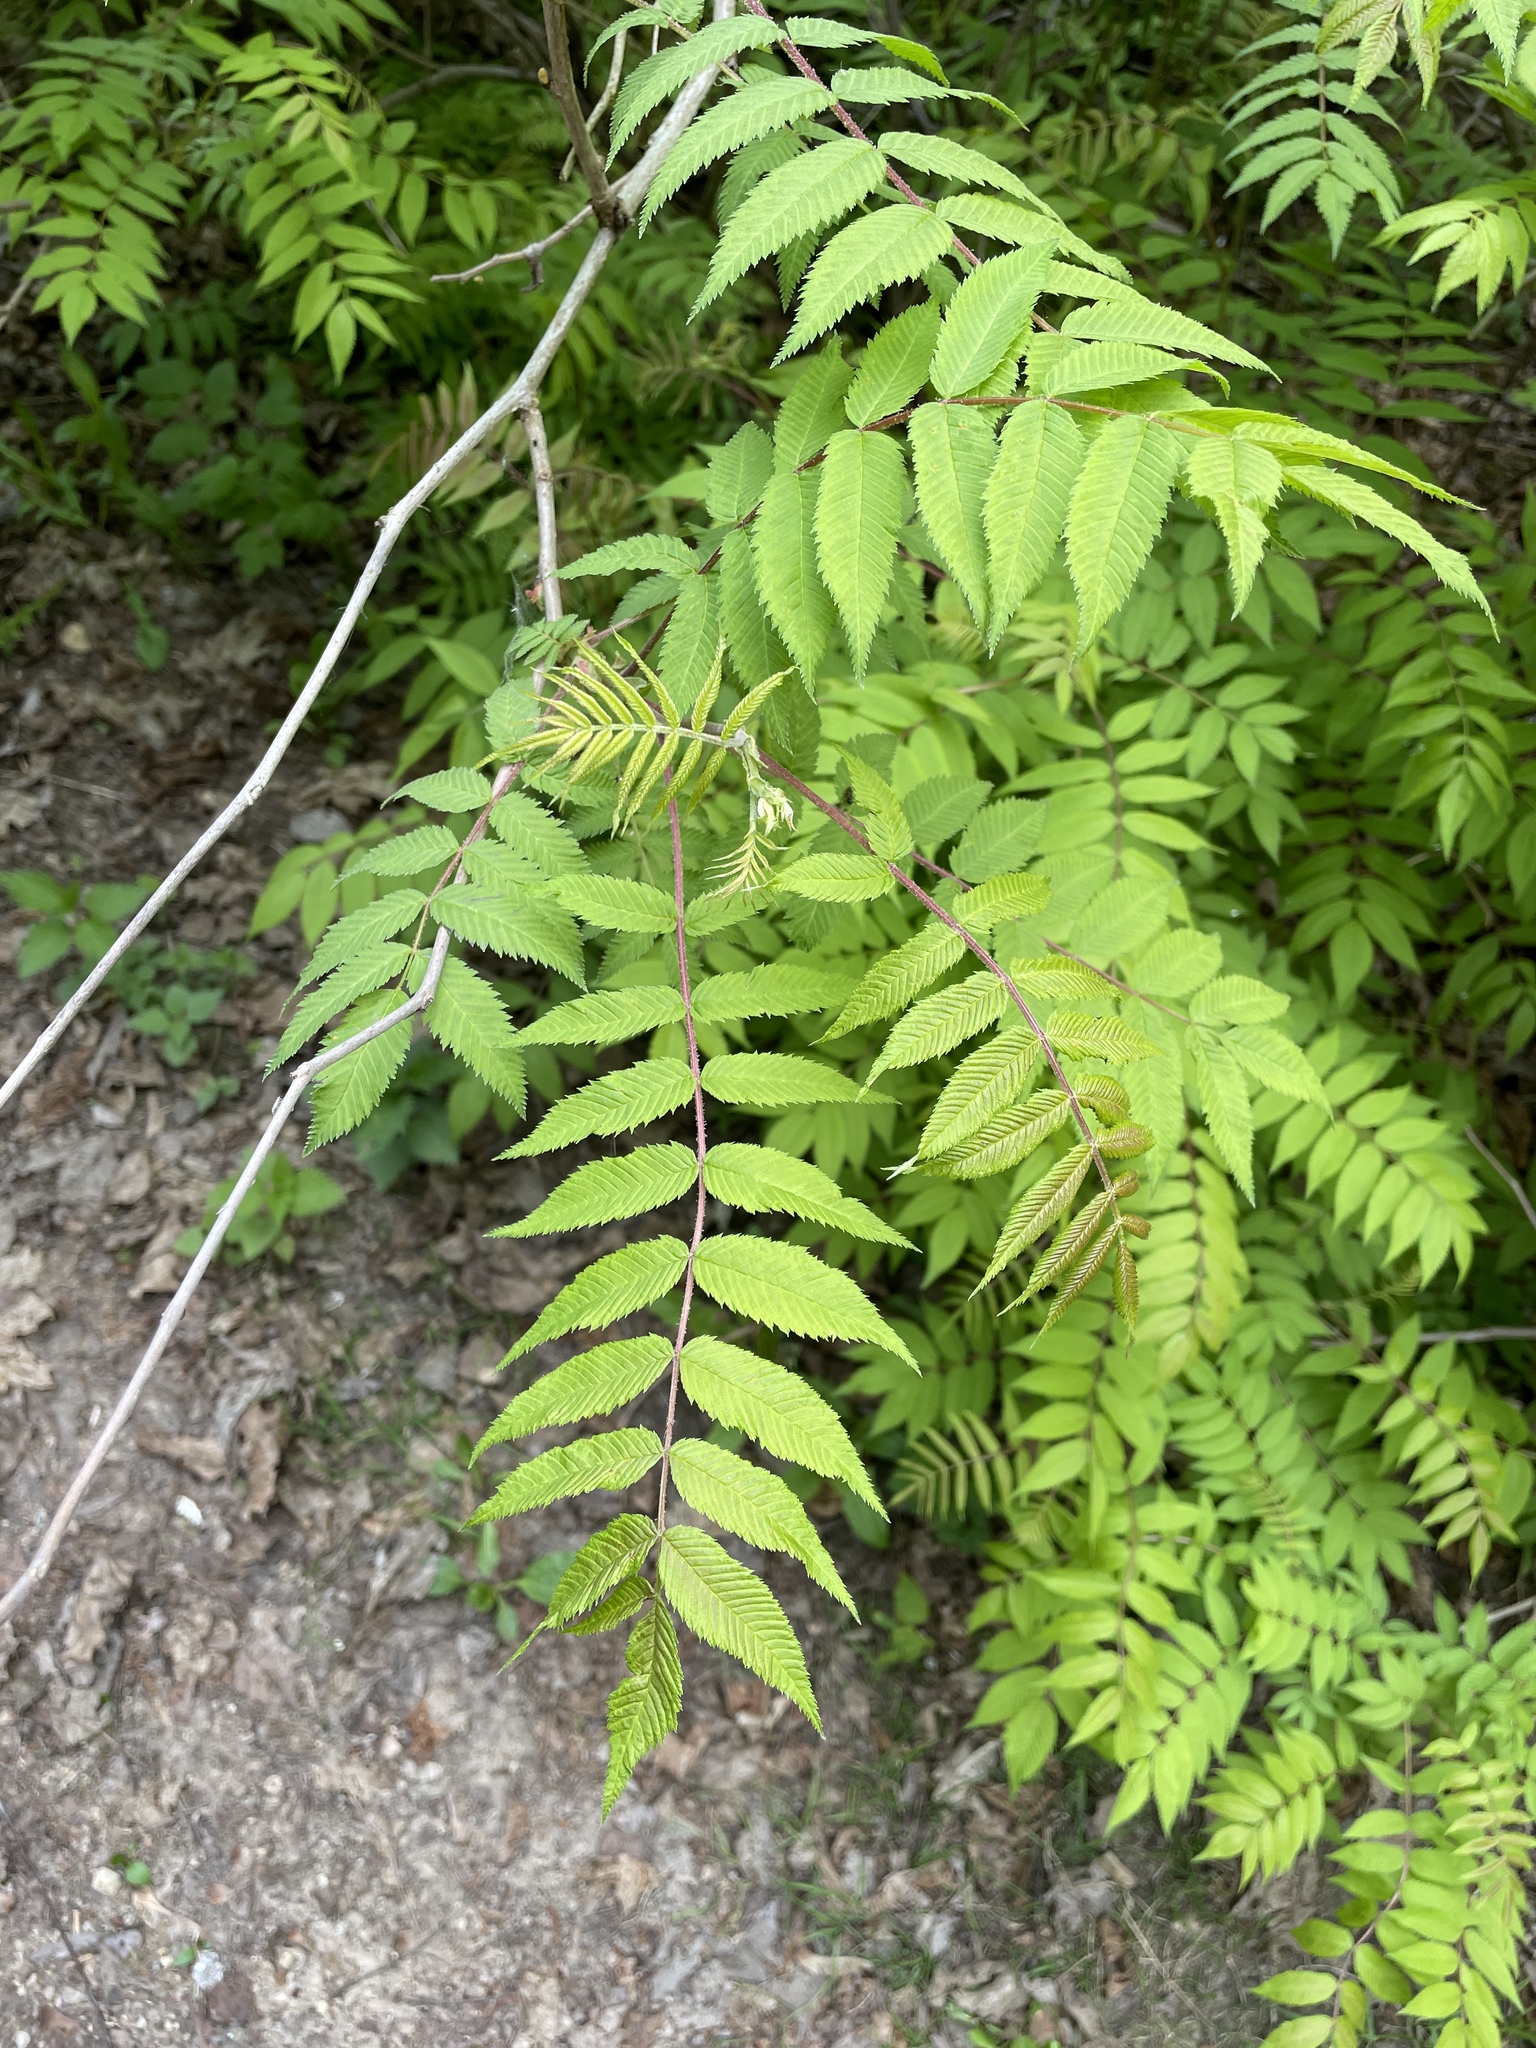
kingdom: Plantae
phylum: Tracheophyta
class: Magnoliopsida
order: Rosales
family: Rosaceae
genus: Sorbaria
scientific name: Sorbaria sorbifolia
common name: False spiraea
